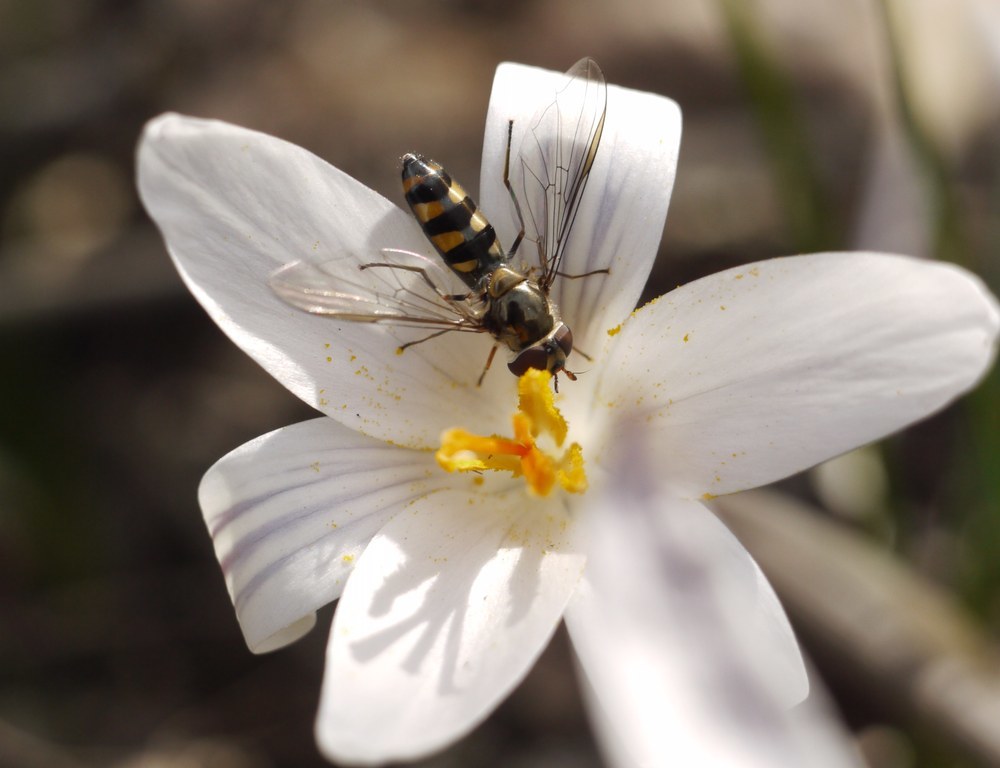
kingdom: Animalia
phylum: Arthropoda
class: Insecta
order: Diptera
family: Syrphidae
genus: Meliscaeva
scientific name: Meliscaeva auricollis
